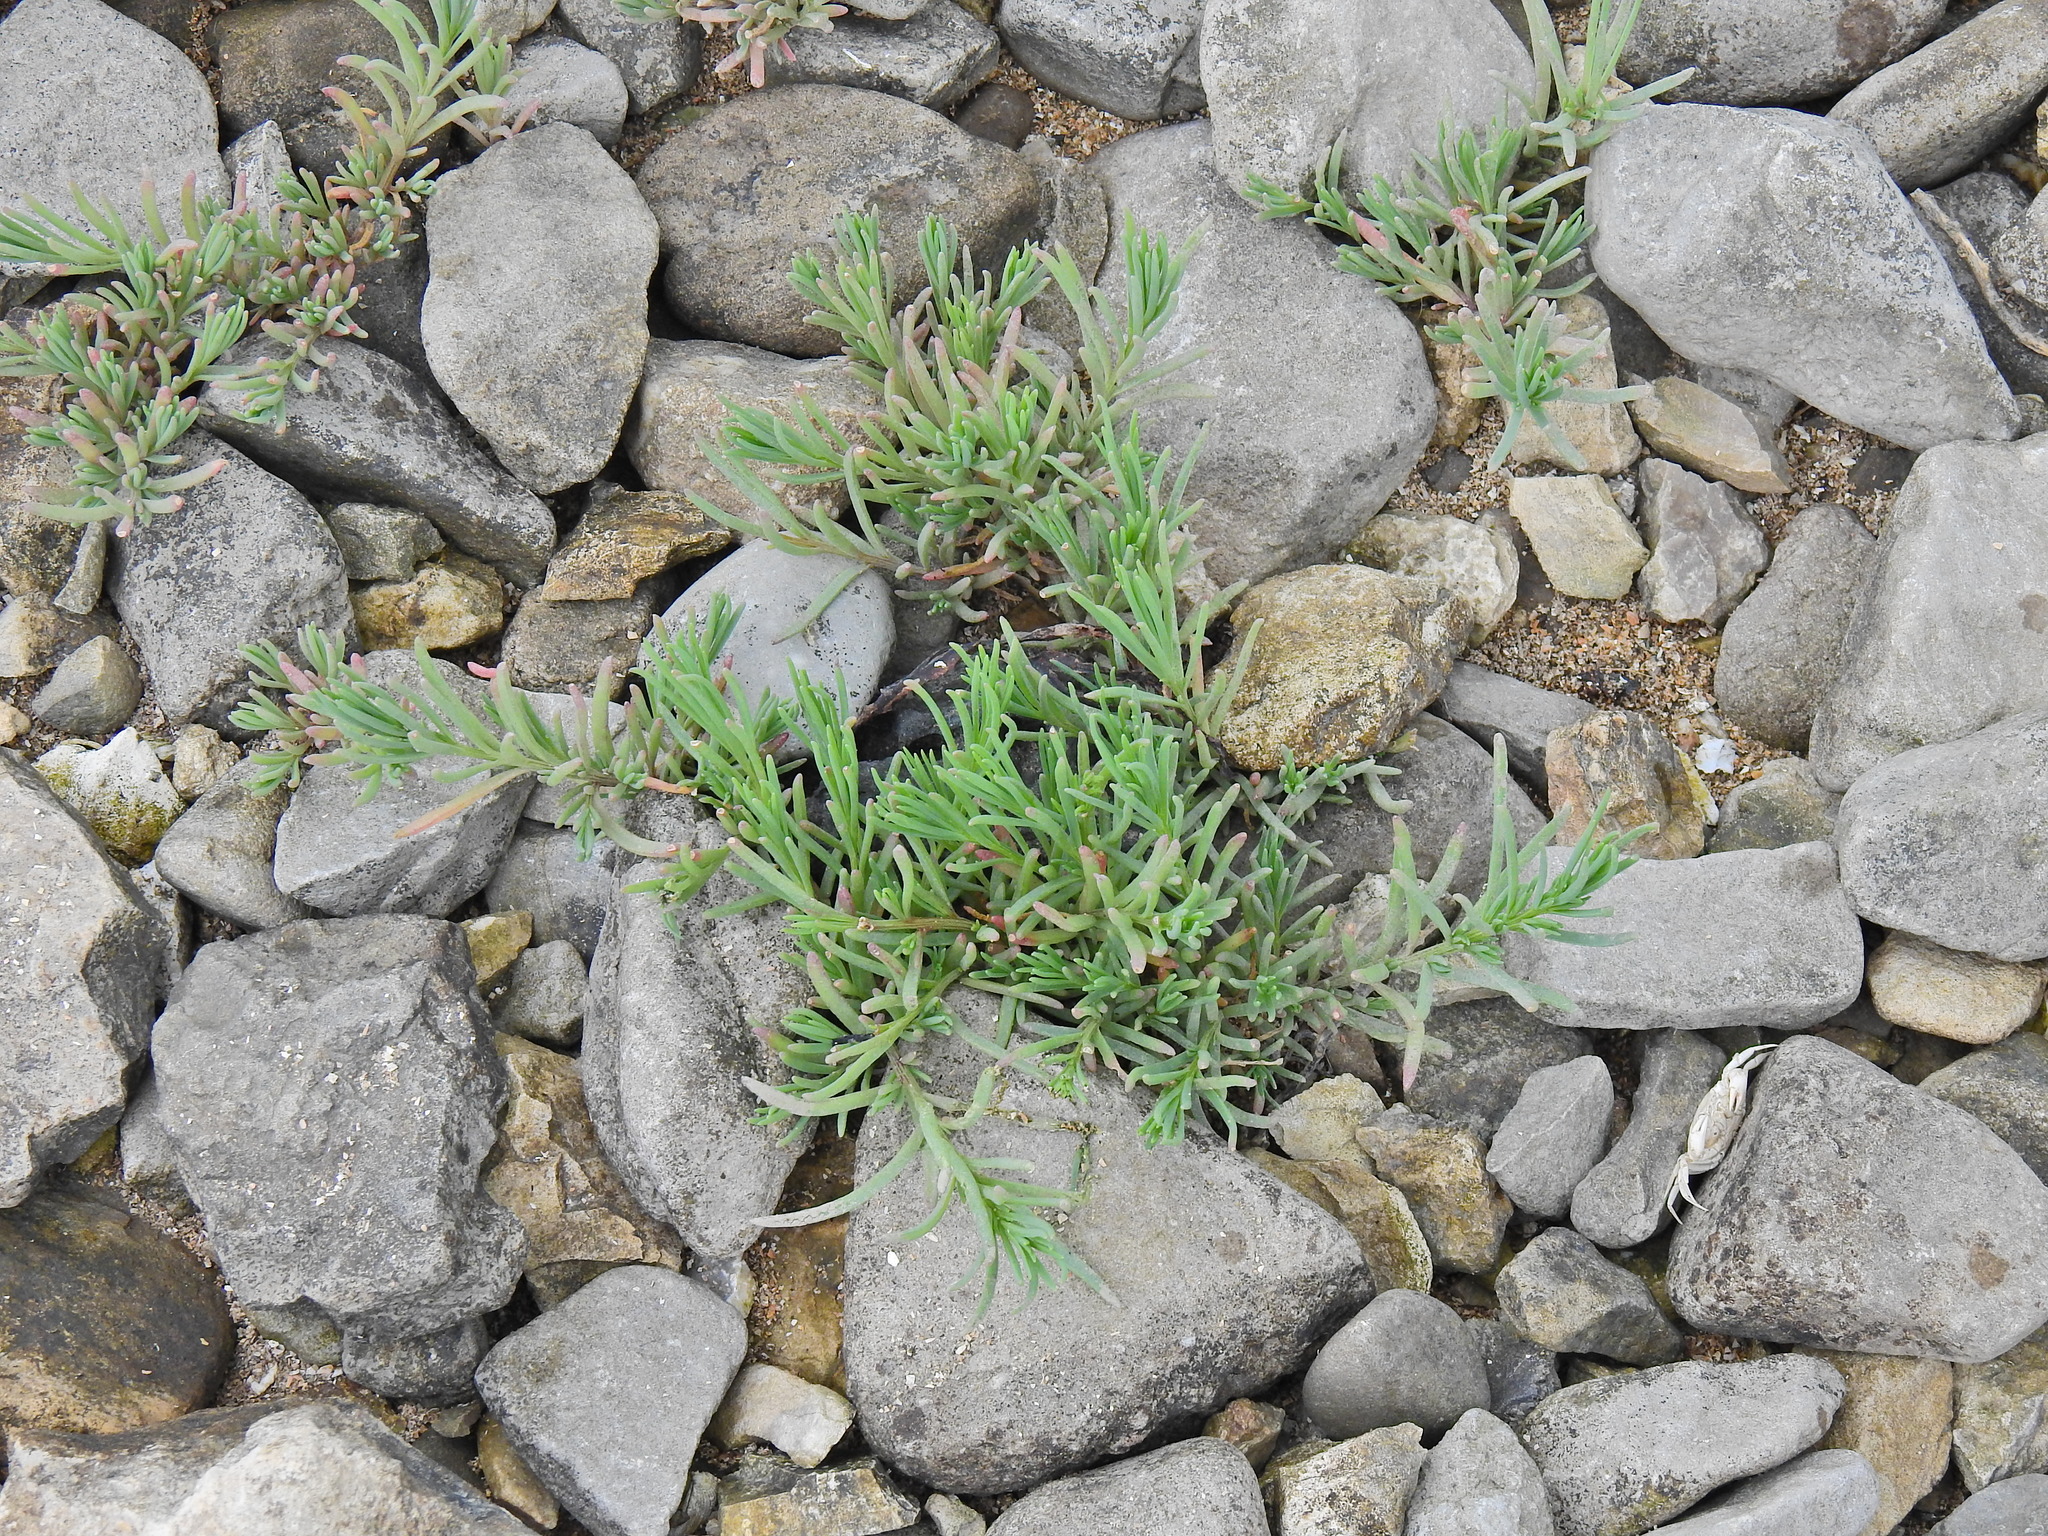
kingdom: Plantae
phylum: Tracheophyta
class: Magnoliopsida
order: Caryophyllales
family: Amaranthaceae
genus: Suaeda
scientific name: Suaeda maritima
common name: Annual sea-blite
